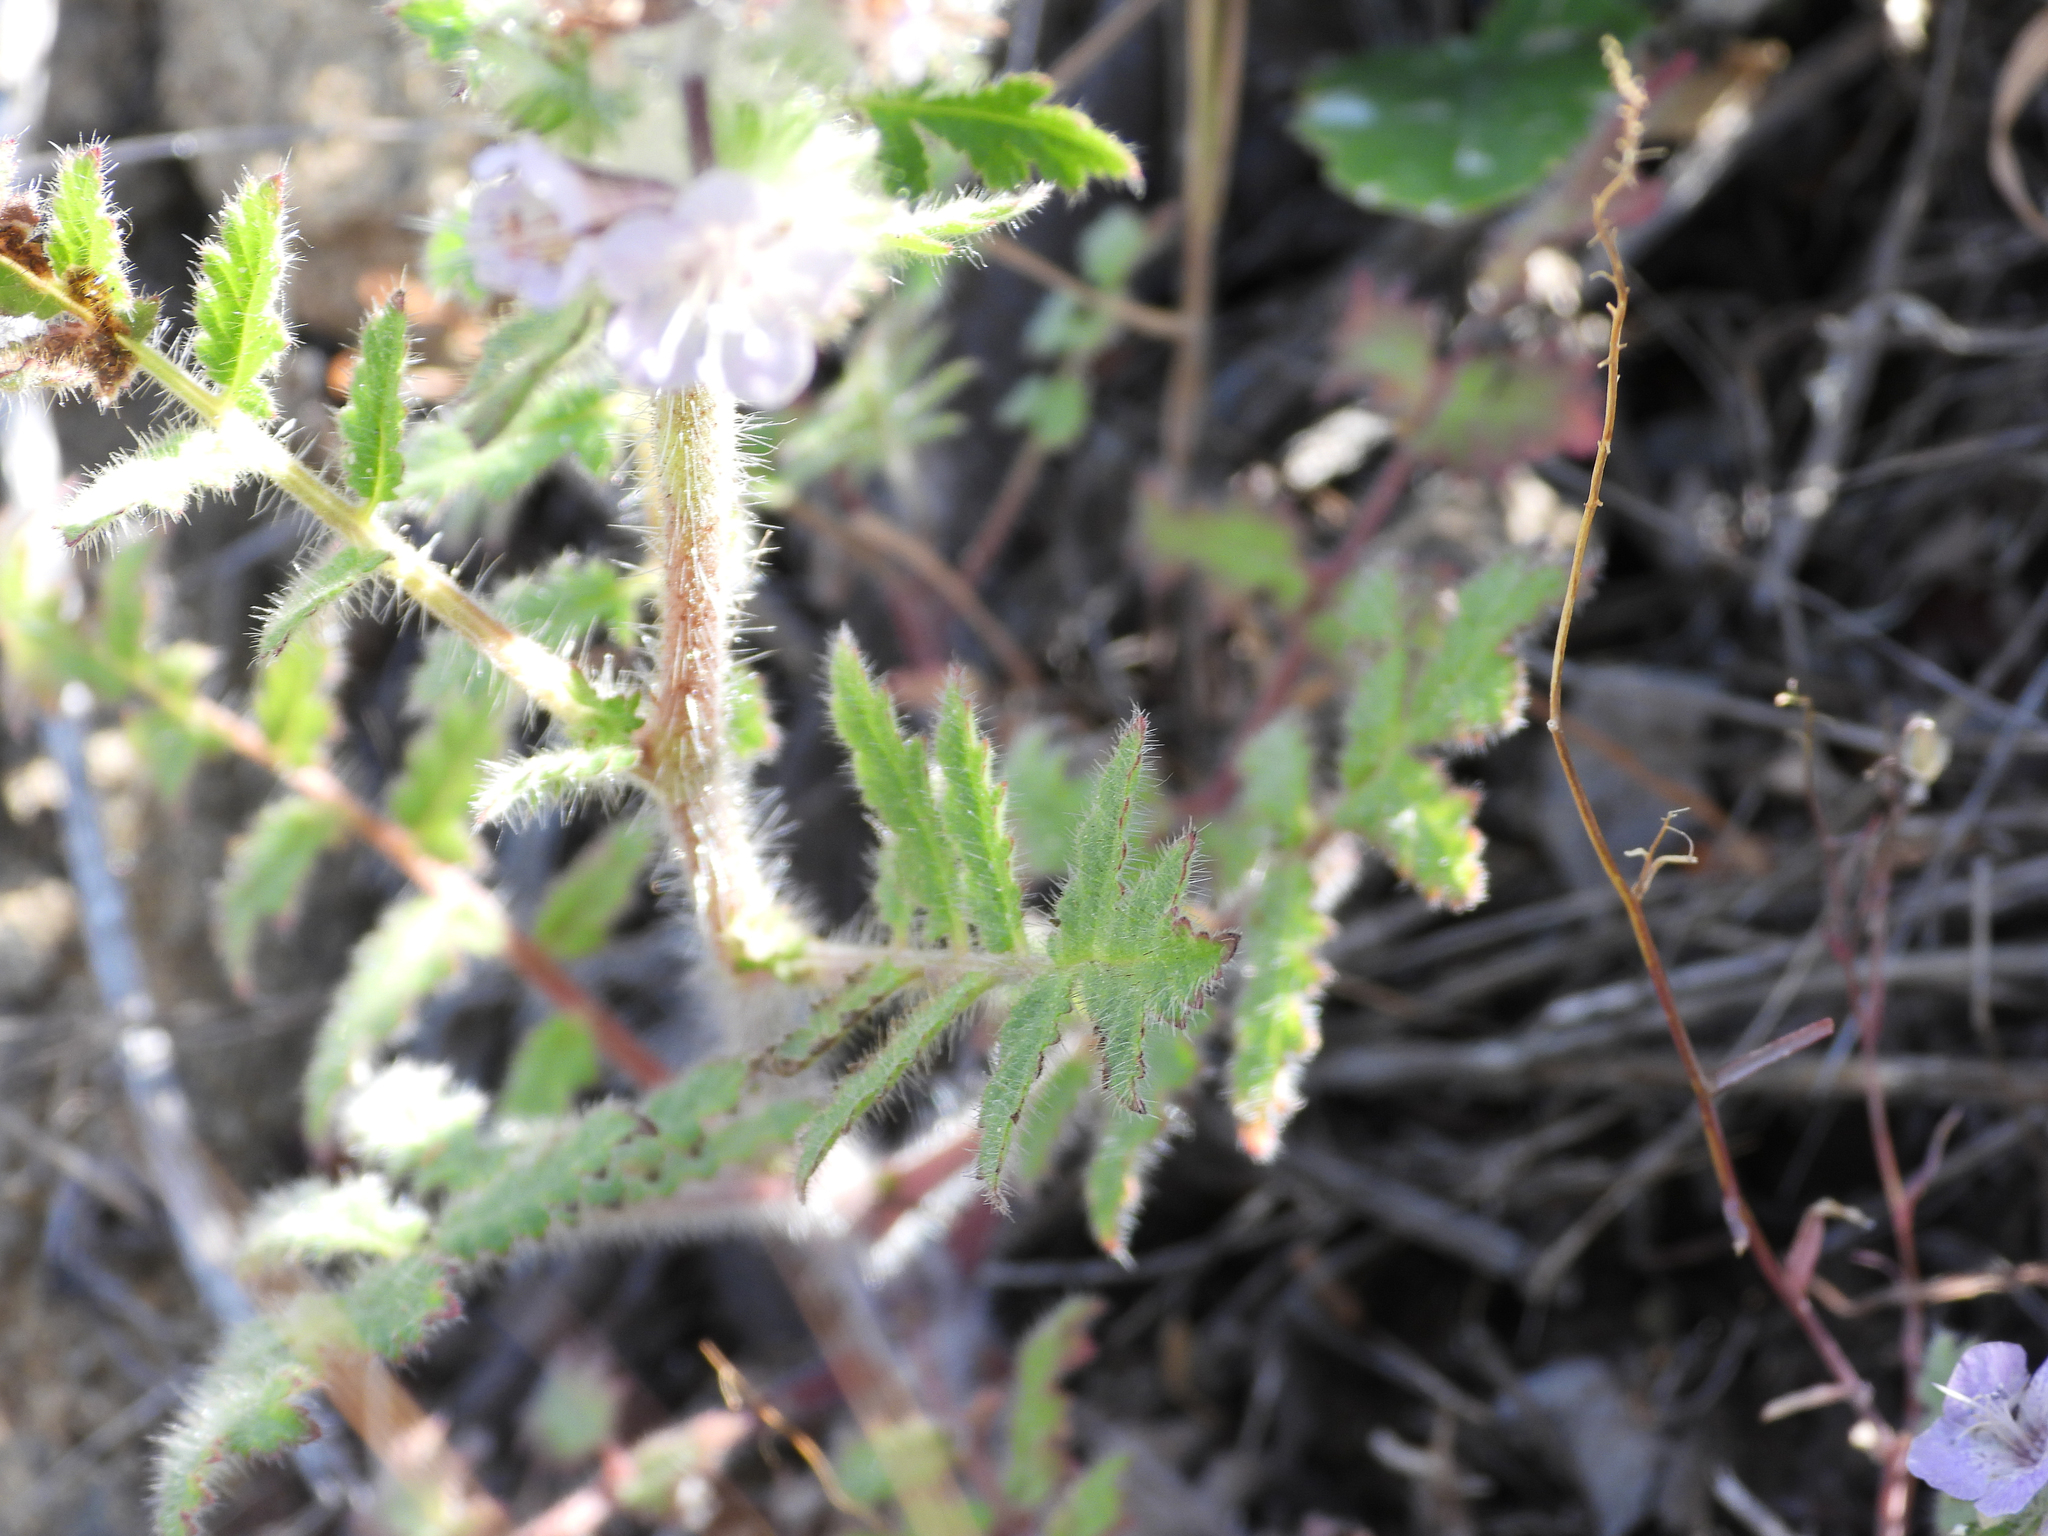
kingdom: Plantae
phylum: Tracheophyta
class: Magnoliopsida
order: Boraginales
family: Hydrophyllaceae
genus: Phacelia
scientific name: Phacelia cicutaria
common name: Caterpillar phacelia
